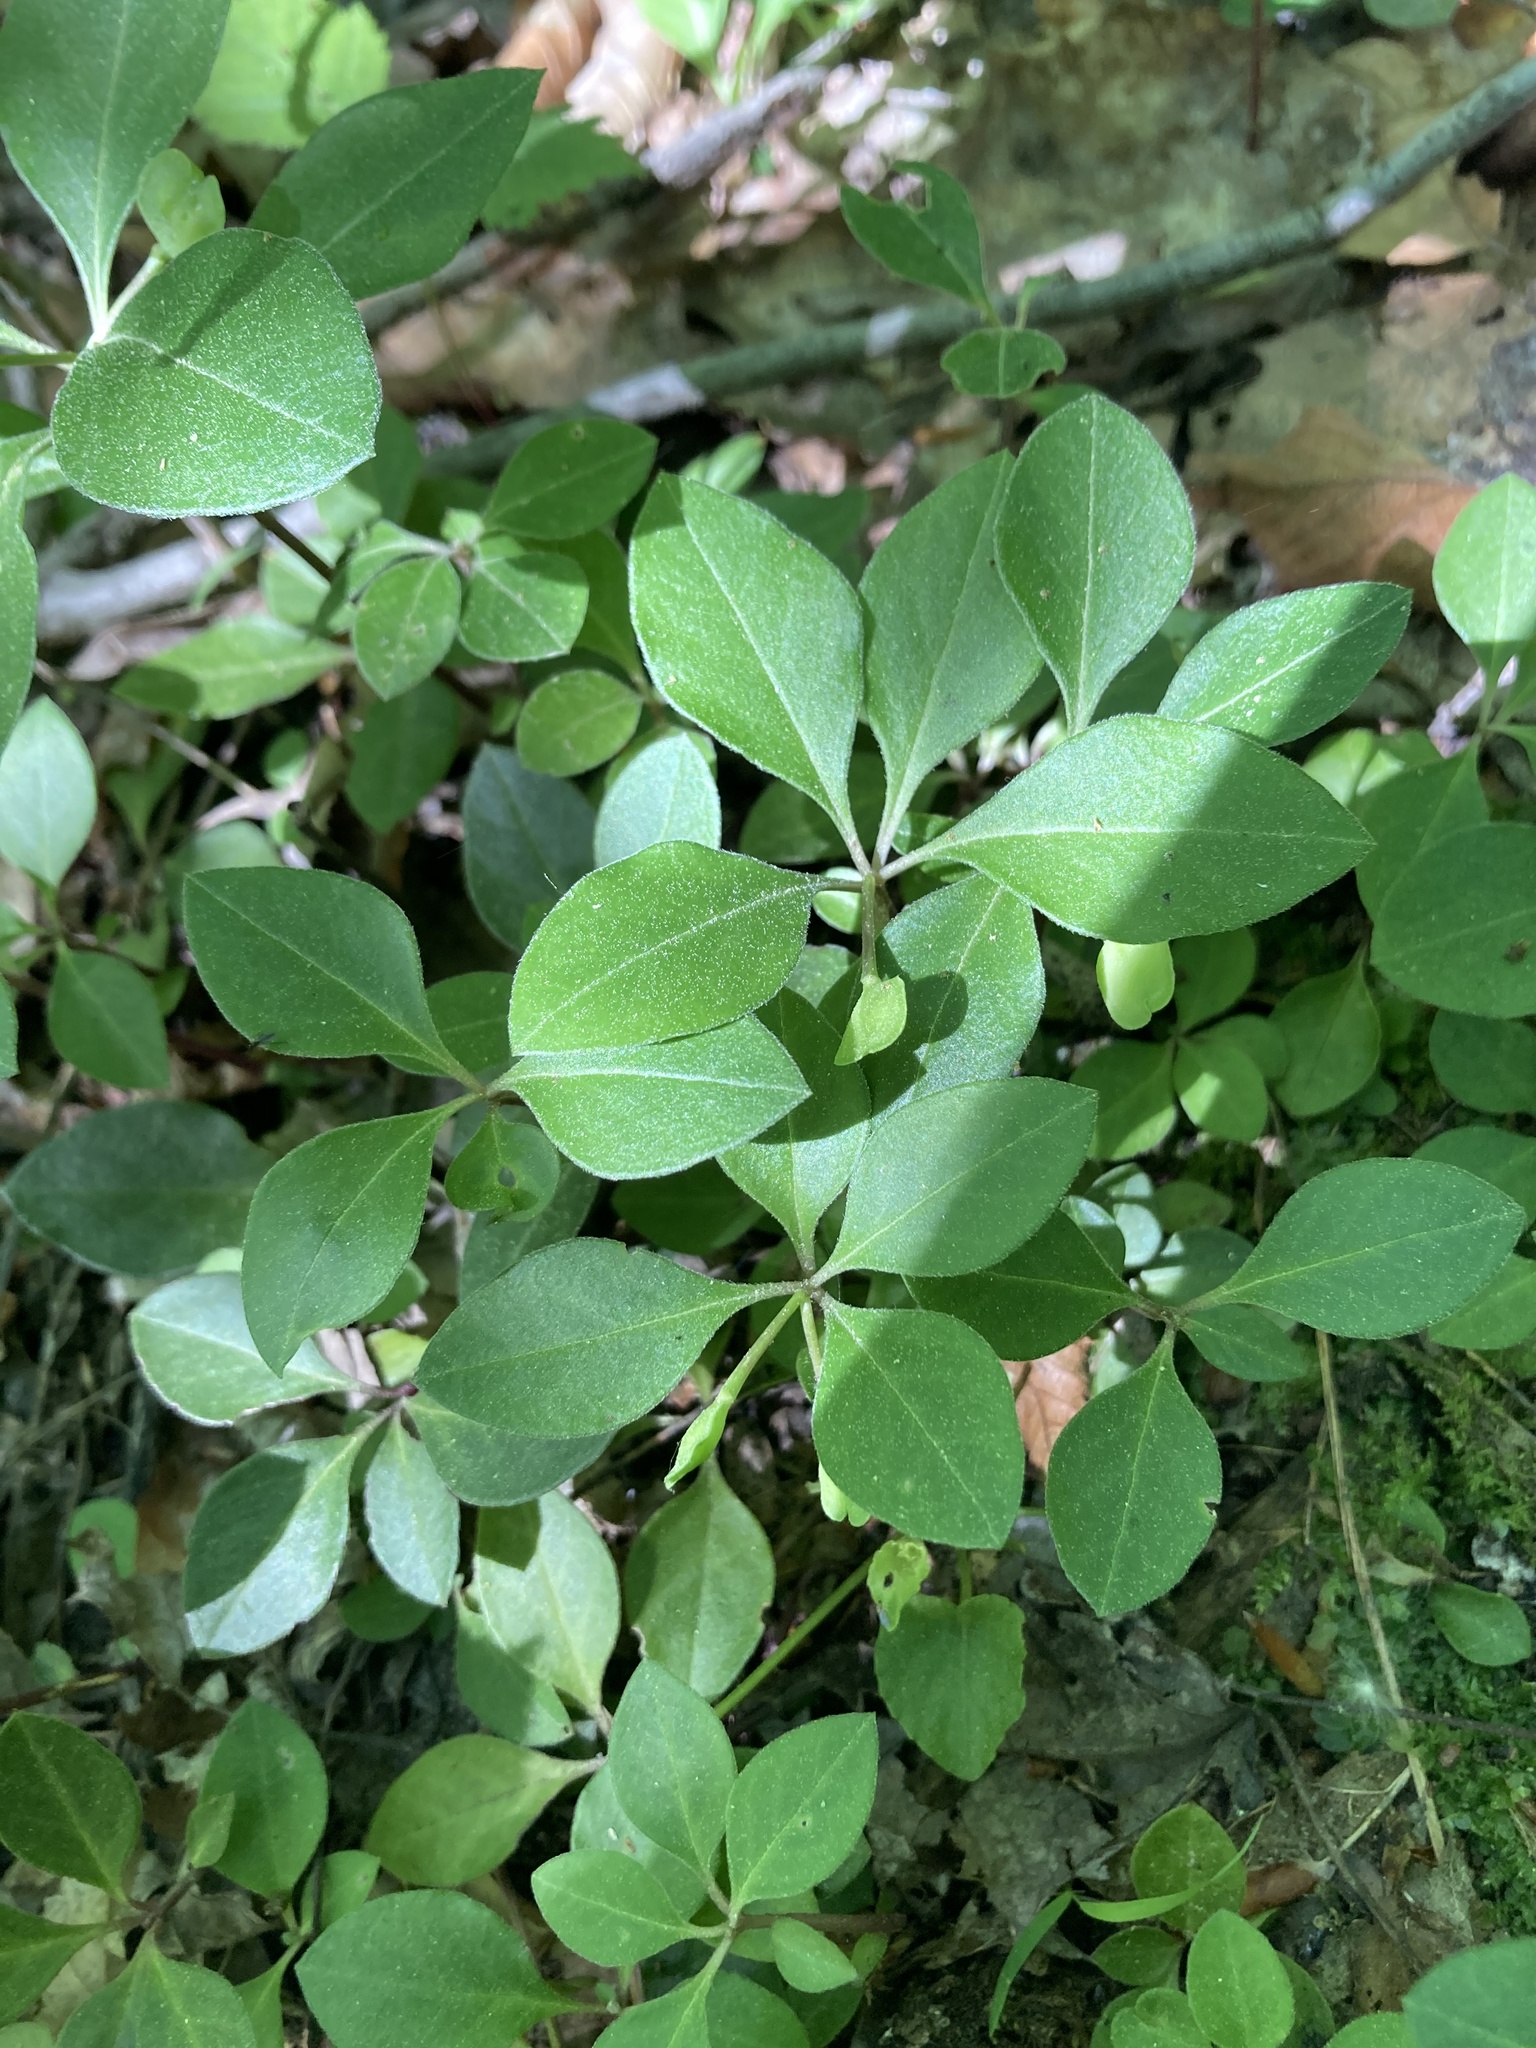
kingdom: Plantae
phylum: Tracheophyta
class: Magnoliopsida
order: Fabales
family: Polygalaceae
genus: Polygaloides
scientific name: Polygaloides paucifolia
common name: Bird-on-the-wing
